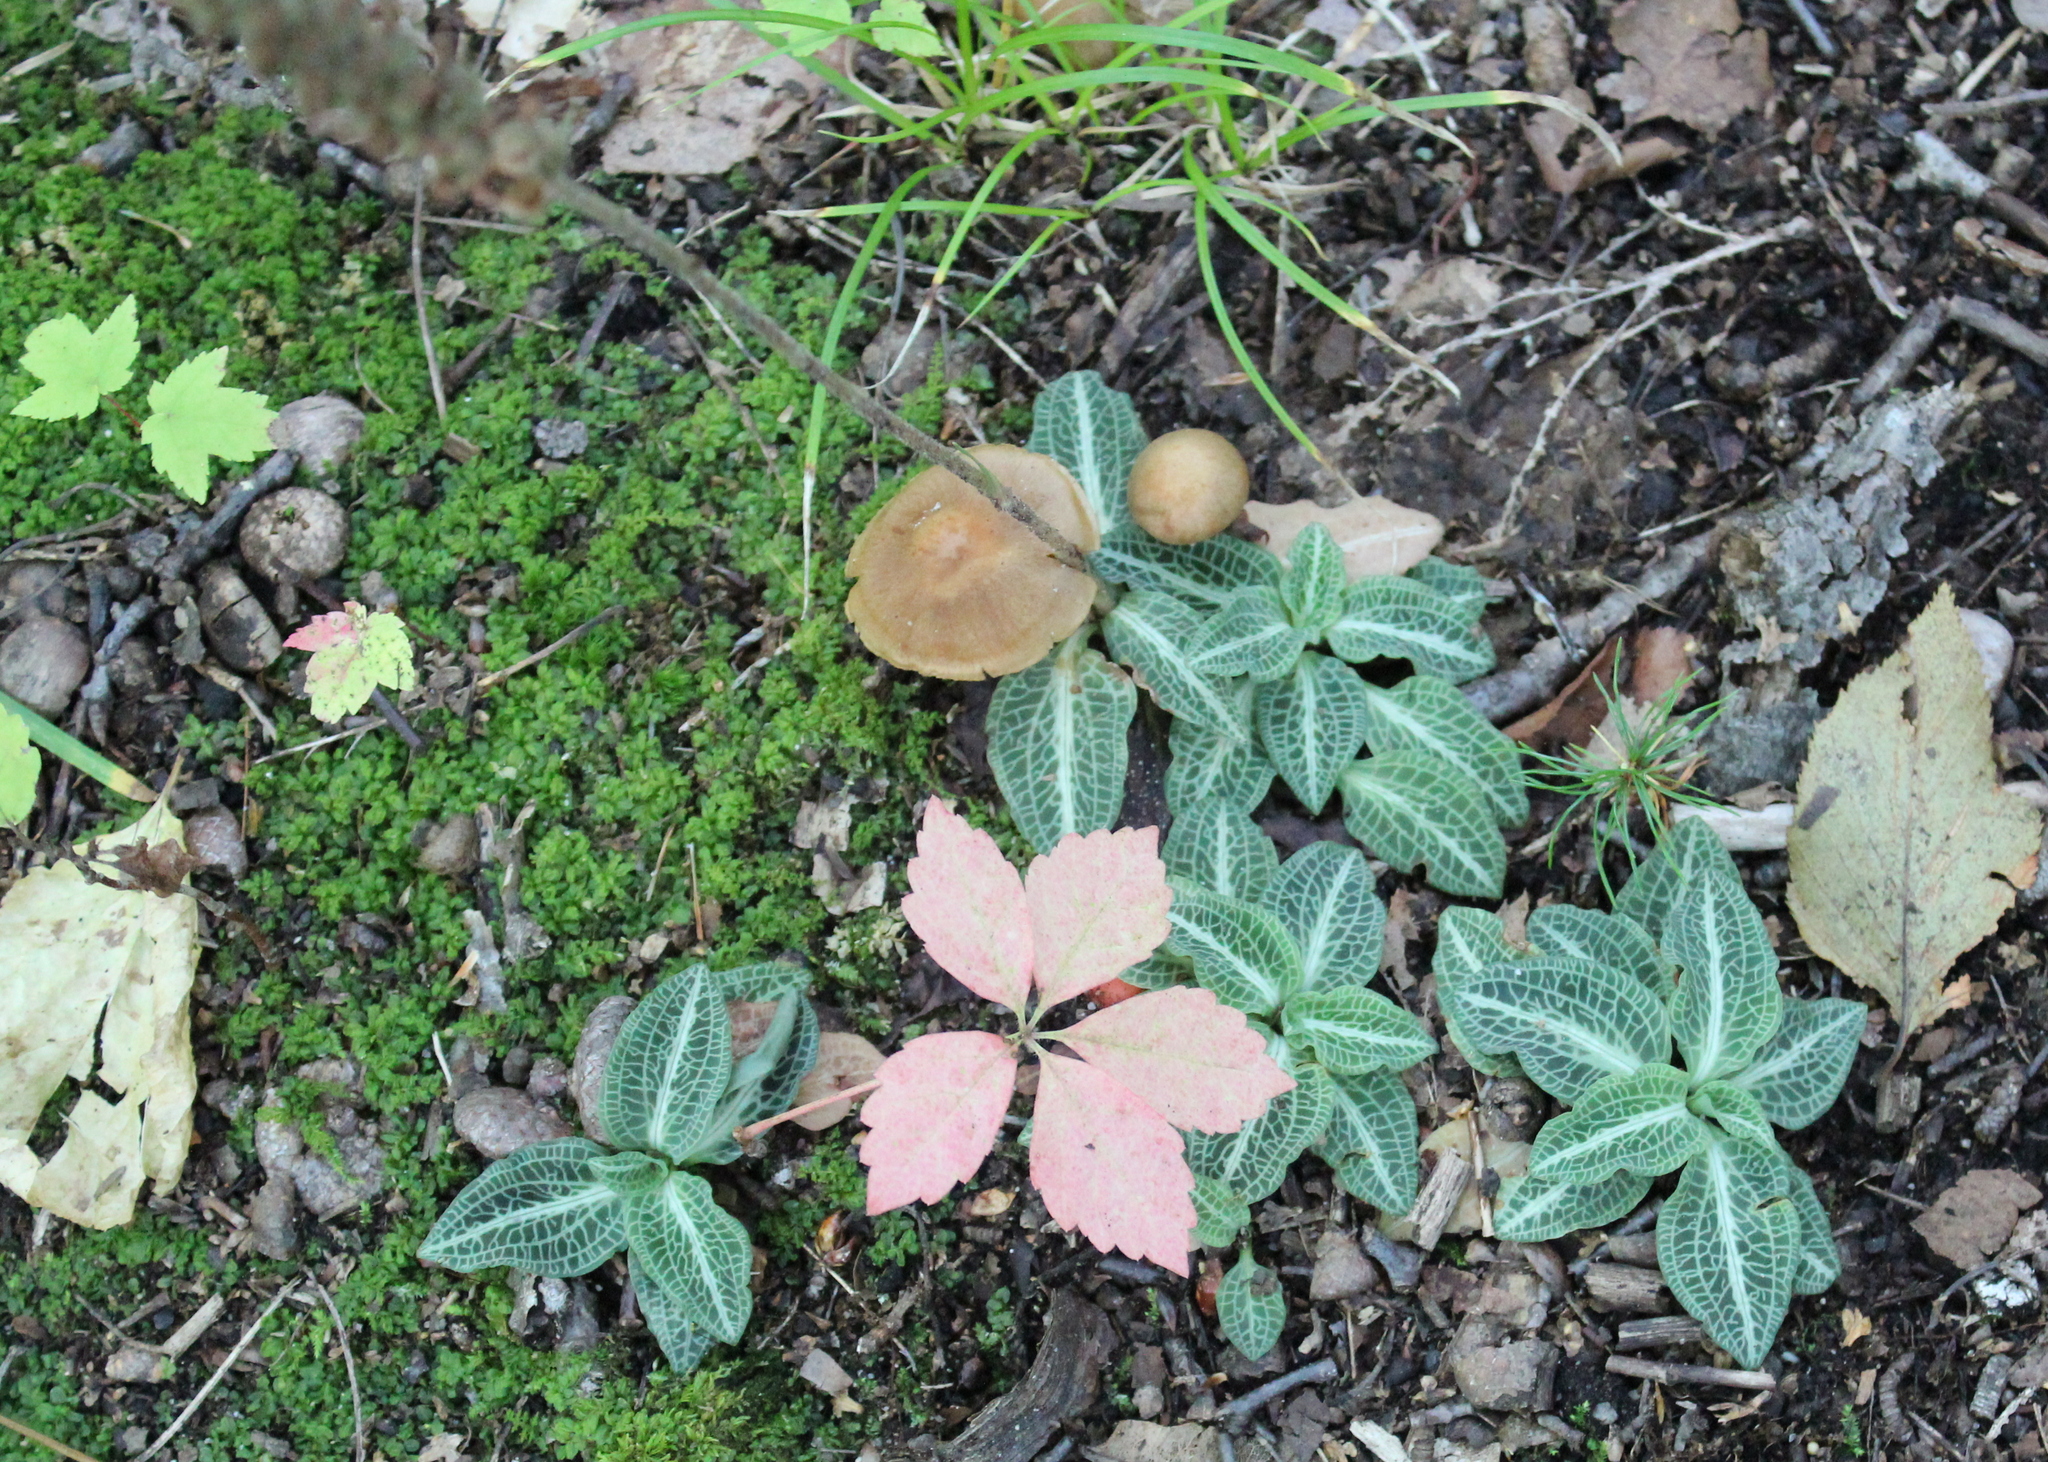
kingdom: Plantae
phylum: Tracheophyta
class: Liliopsida
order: Asparagales
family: Orchidaceae
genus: Goodyera
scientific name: Goodyera pubescens
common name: Downy rattlesnake-plantain
